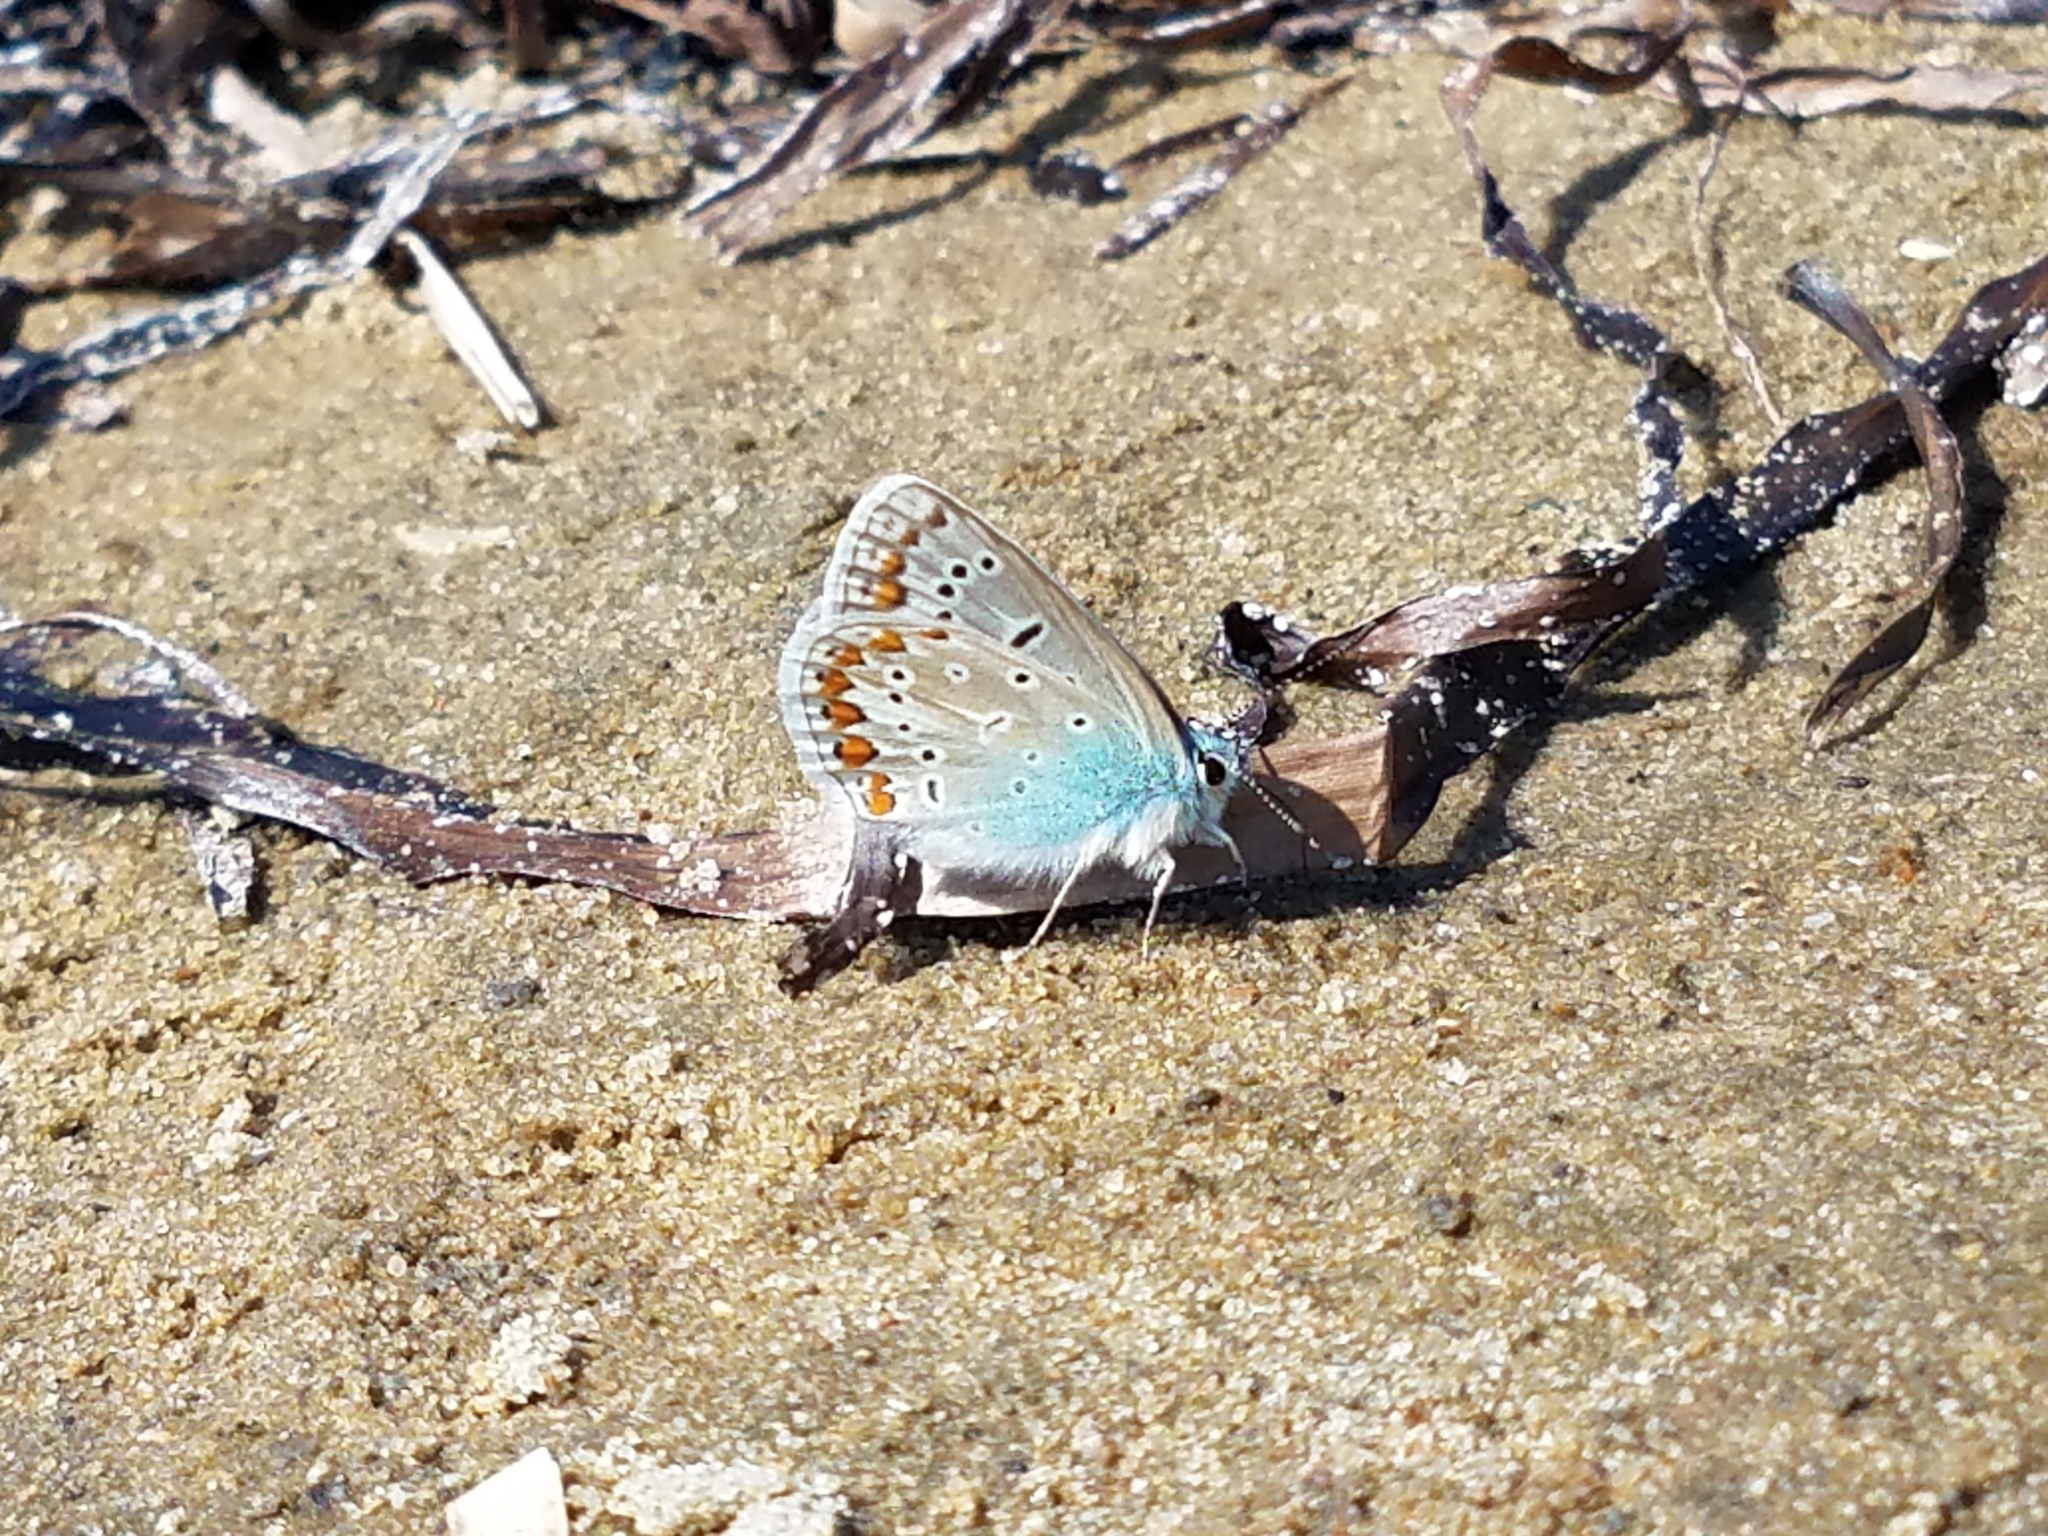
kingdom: Animalia
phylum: Arthropoda
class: Insecta
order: Lepidoptera
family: Lycaenidae
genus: Polyommatus
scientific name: Polyommatus icarus
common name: Common blue
